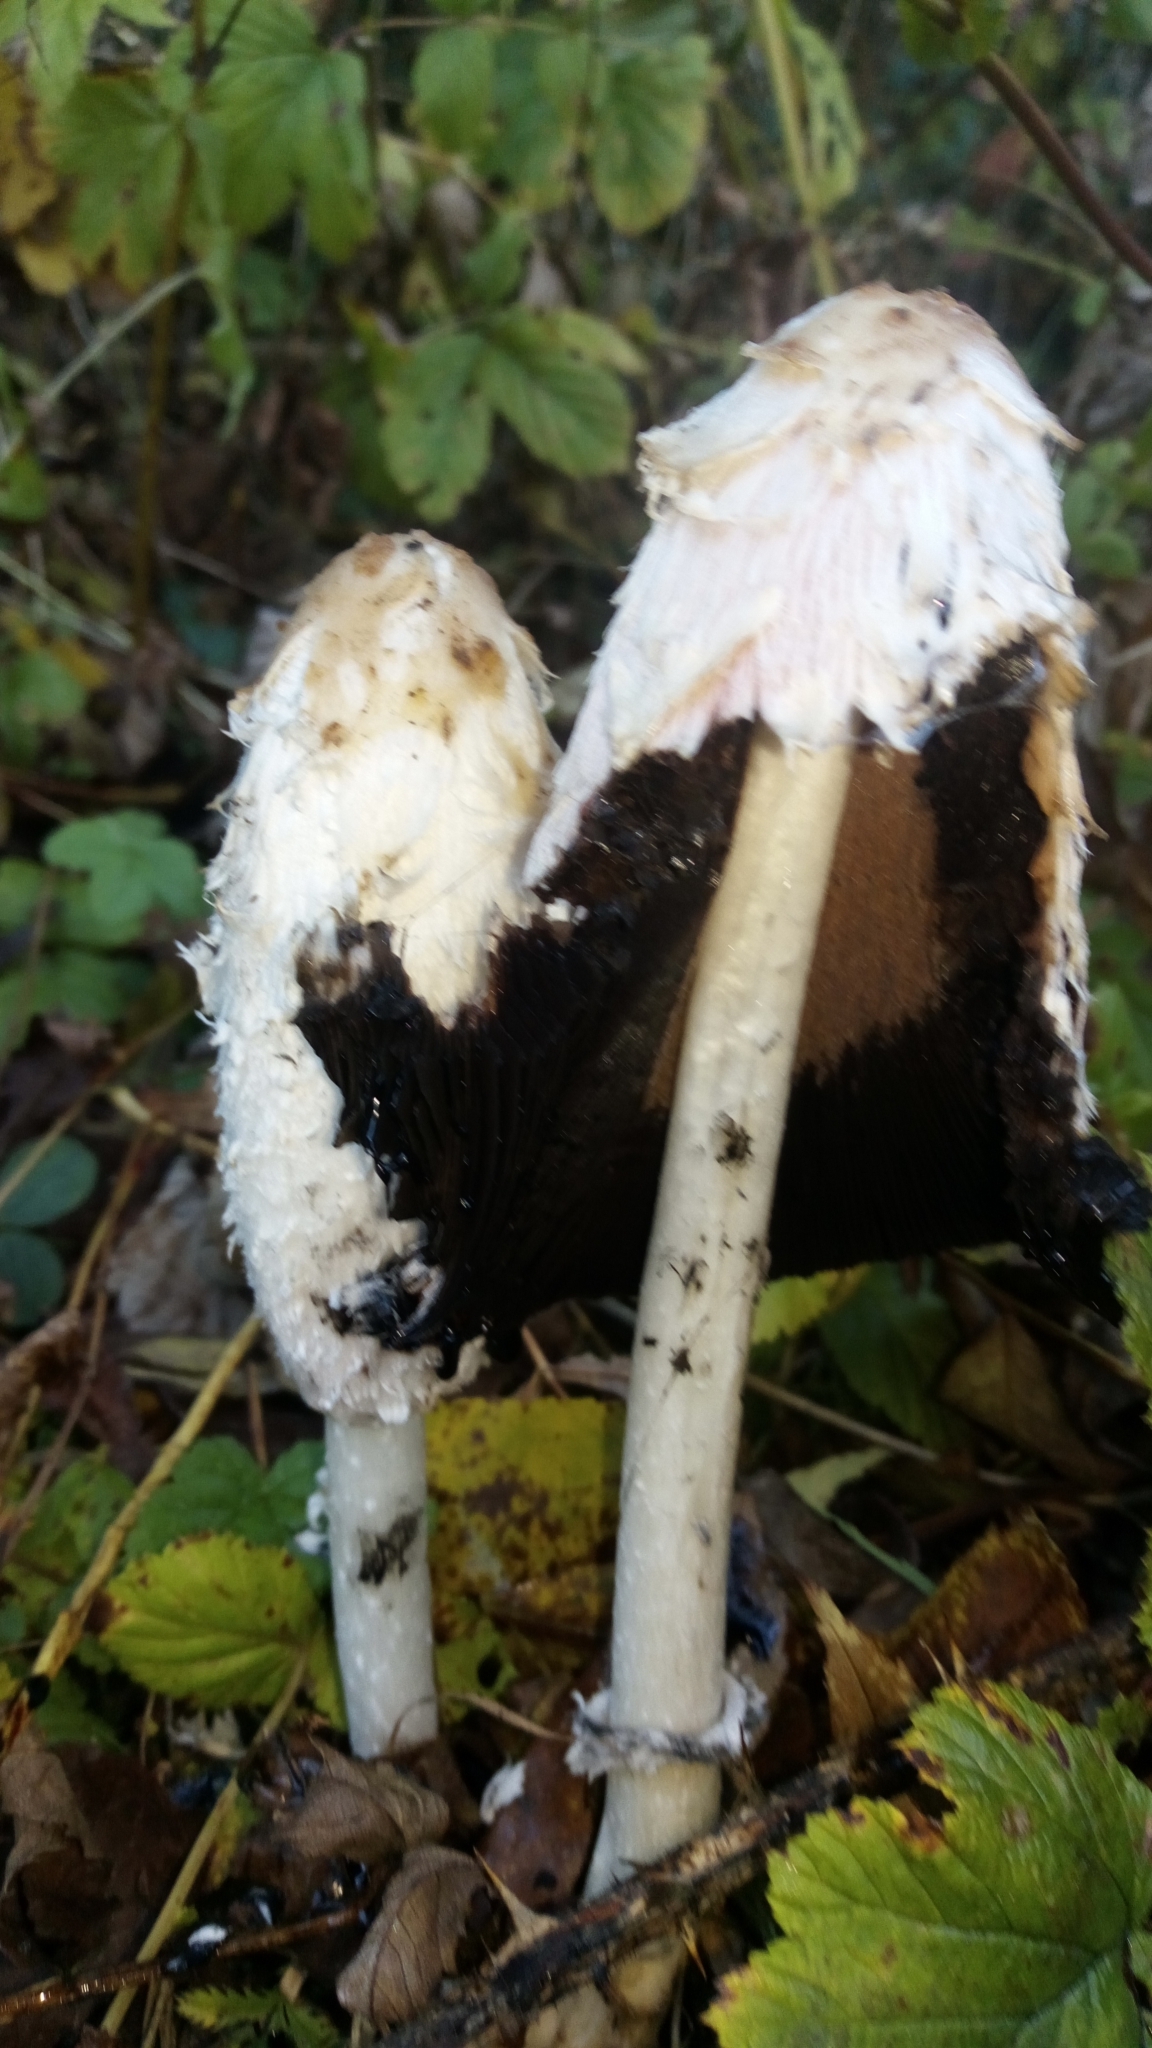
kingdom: Fungi
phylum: Basidiomycota
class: Agaricomycetes
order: Agaricales
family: Agaricaceae
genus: Coprinus
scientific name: Coprinus comatus
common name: Lawyer's wig
